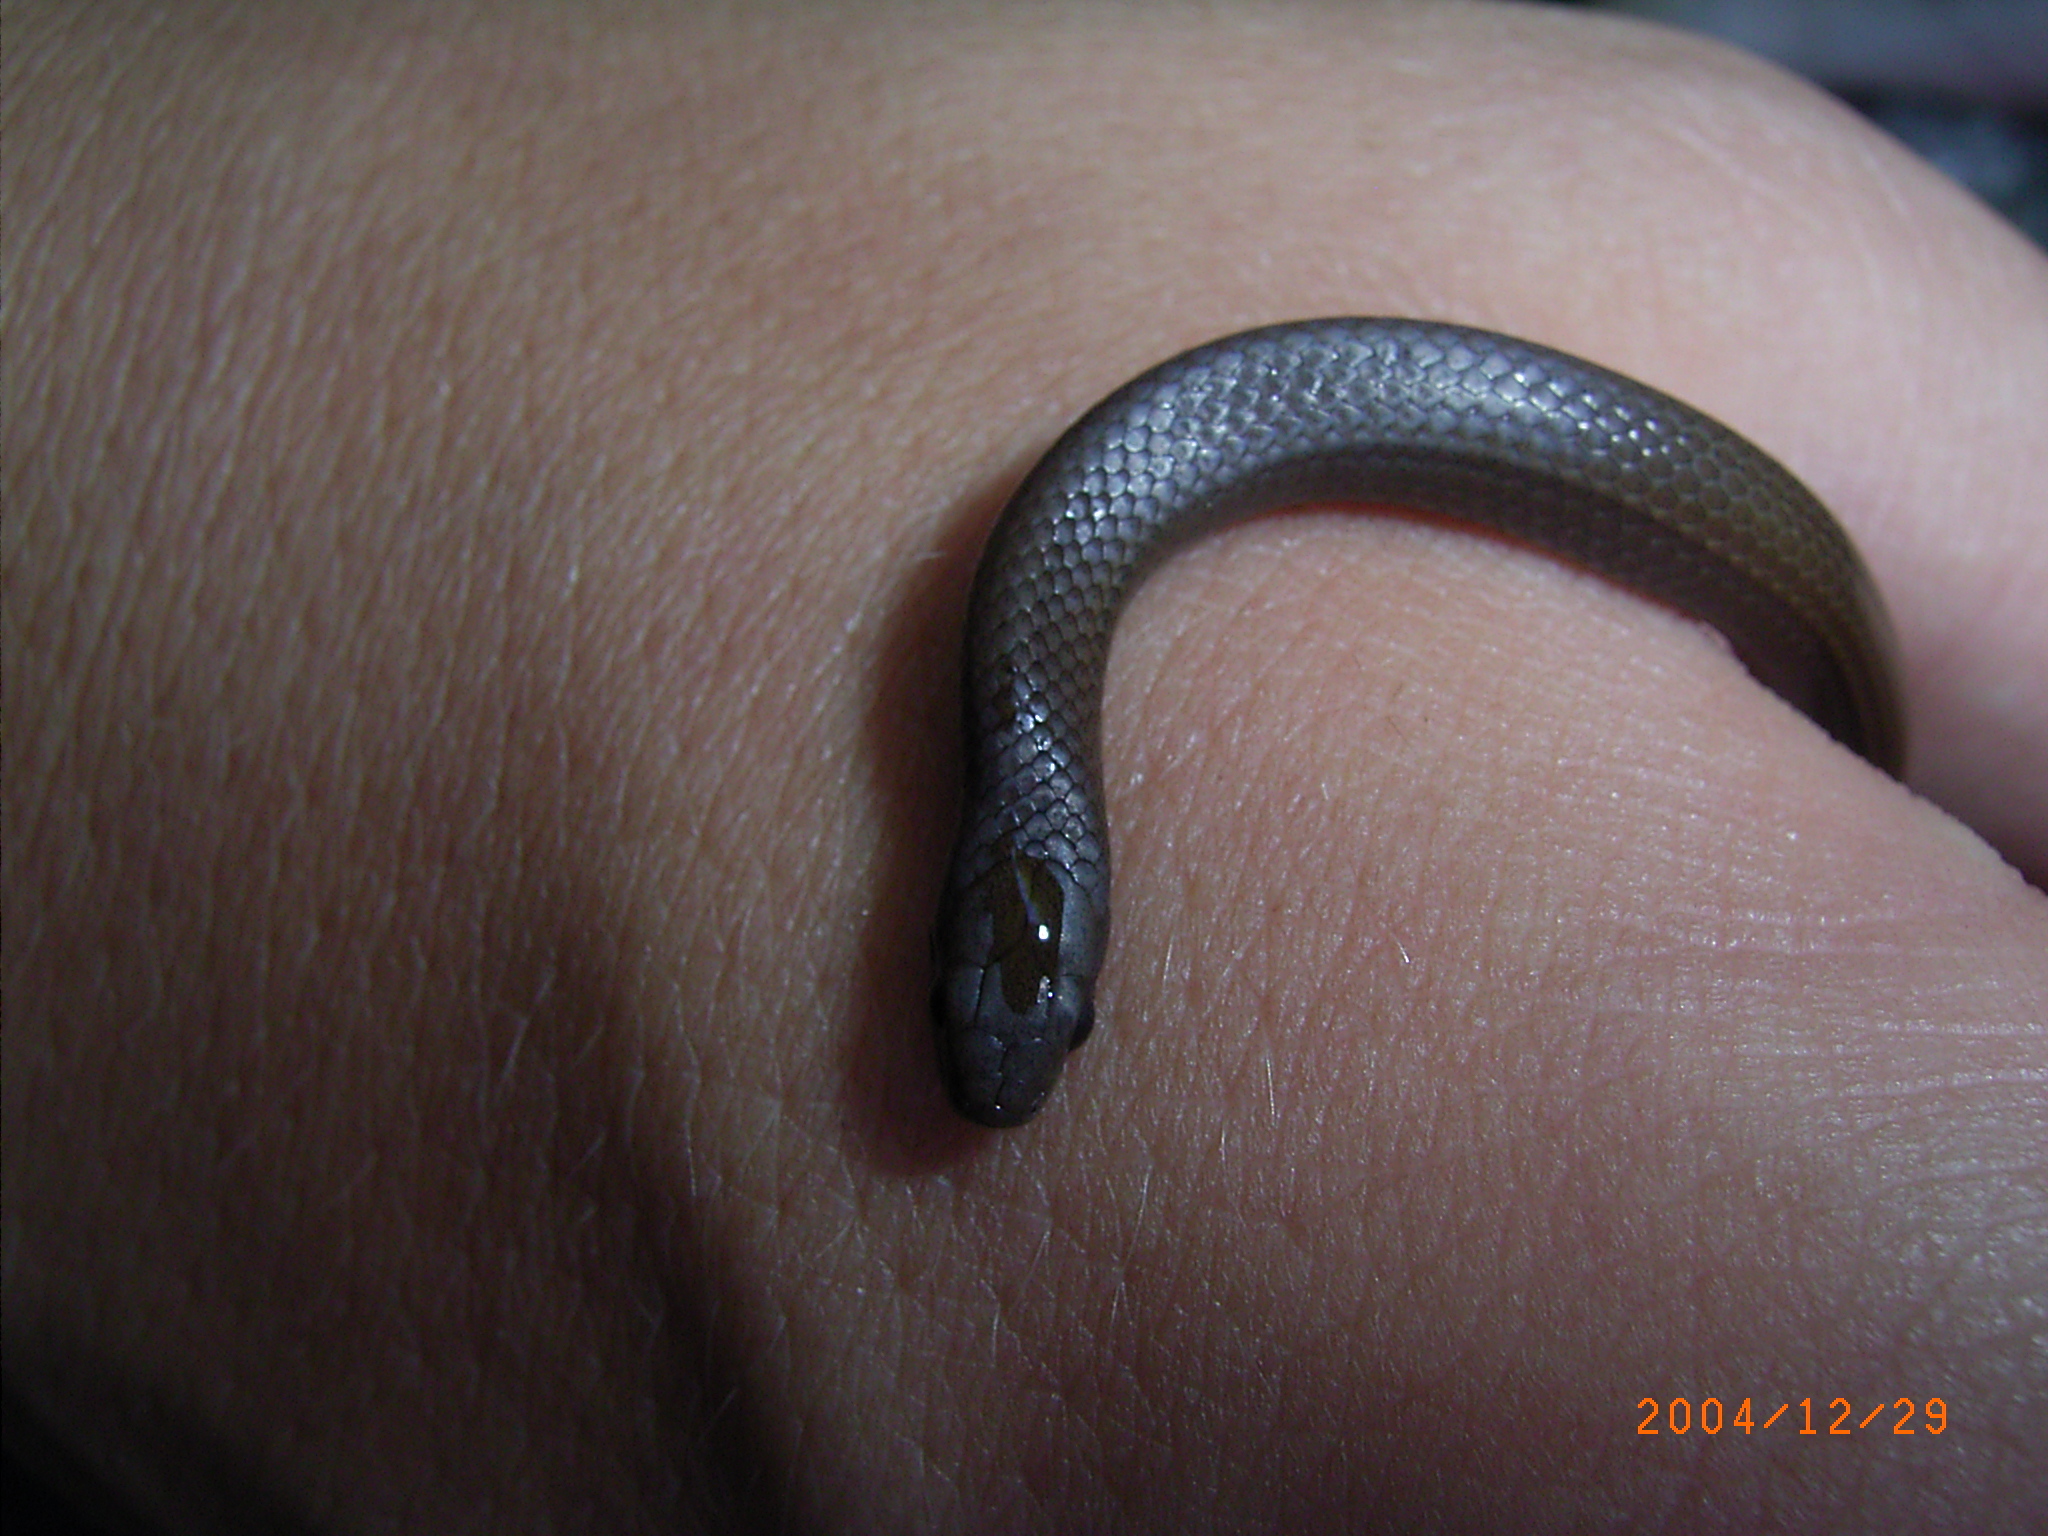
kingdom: Animalia
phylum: Chordata
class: Squamata
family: Pseudoxyrhophiidae
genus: Duberria
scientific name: Duberria lutrix
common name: Common slug eater
